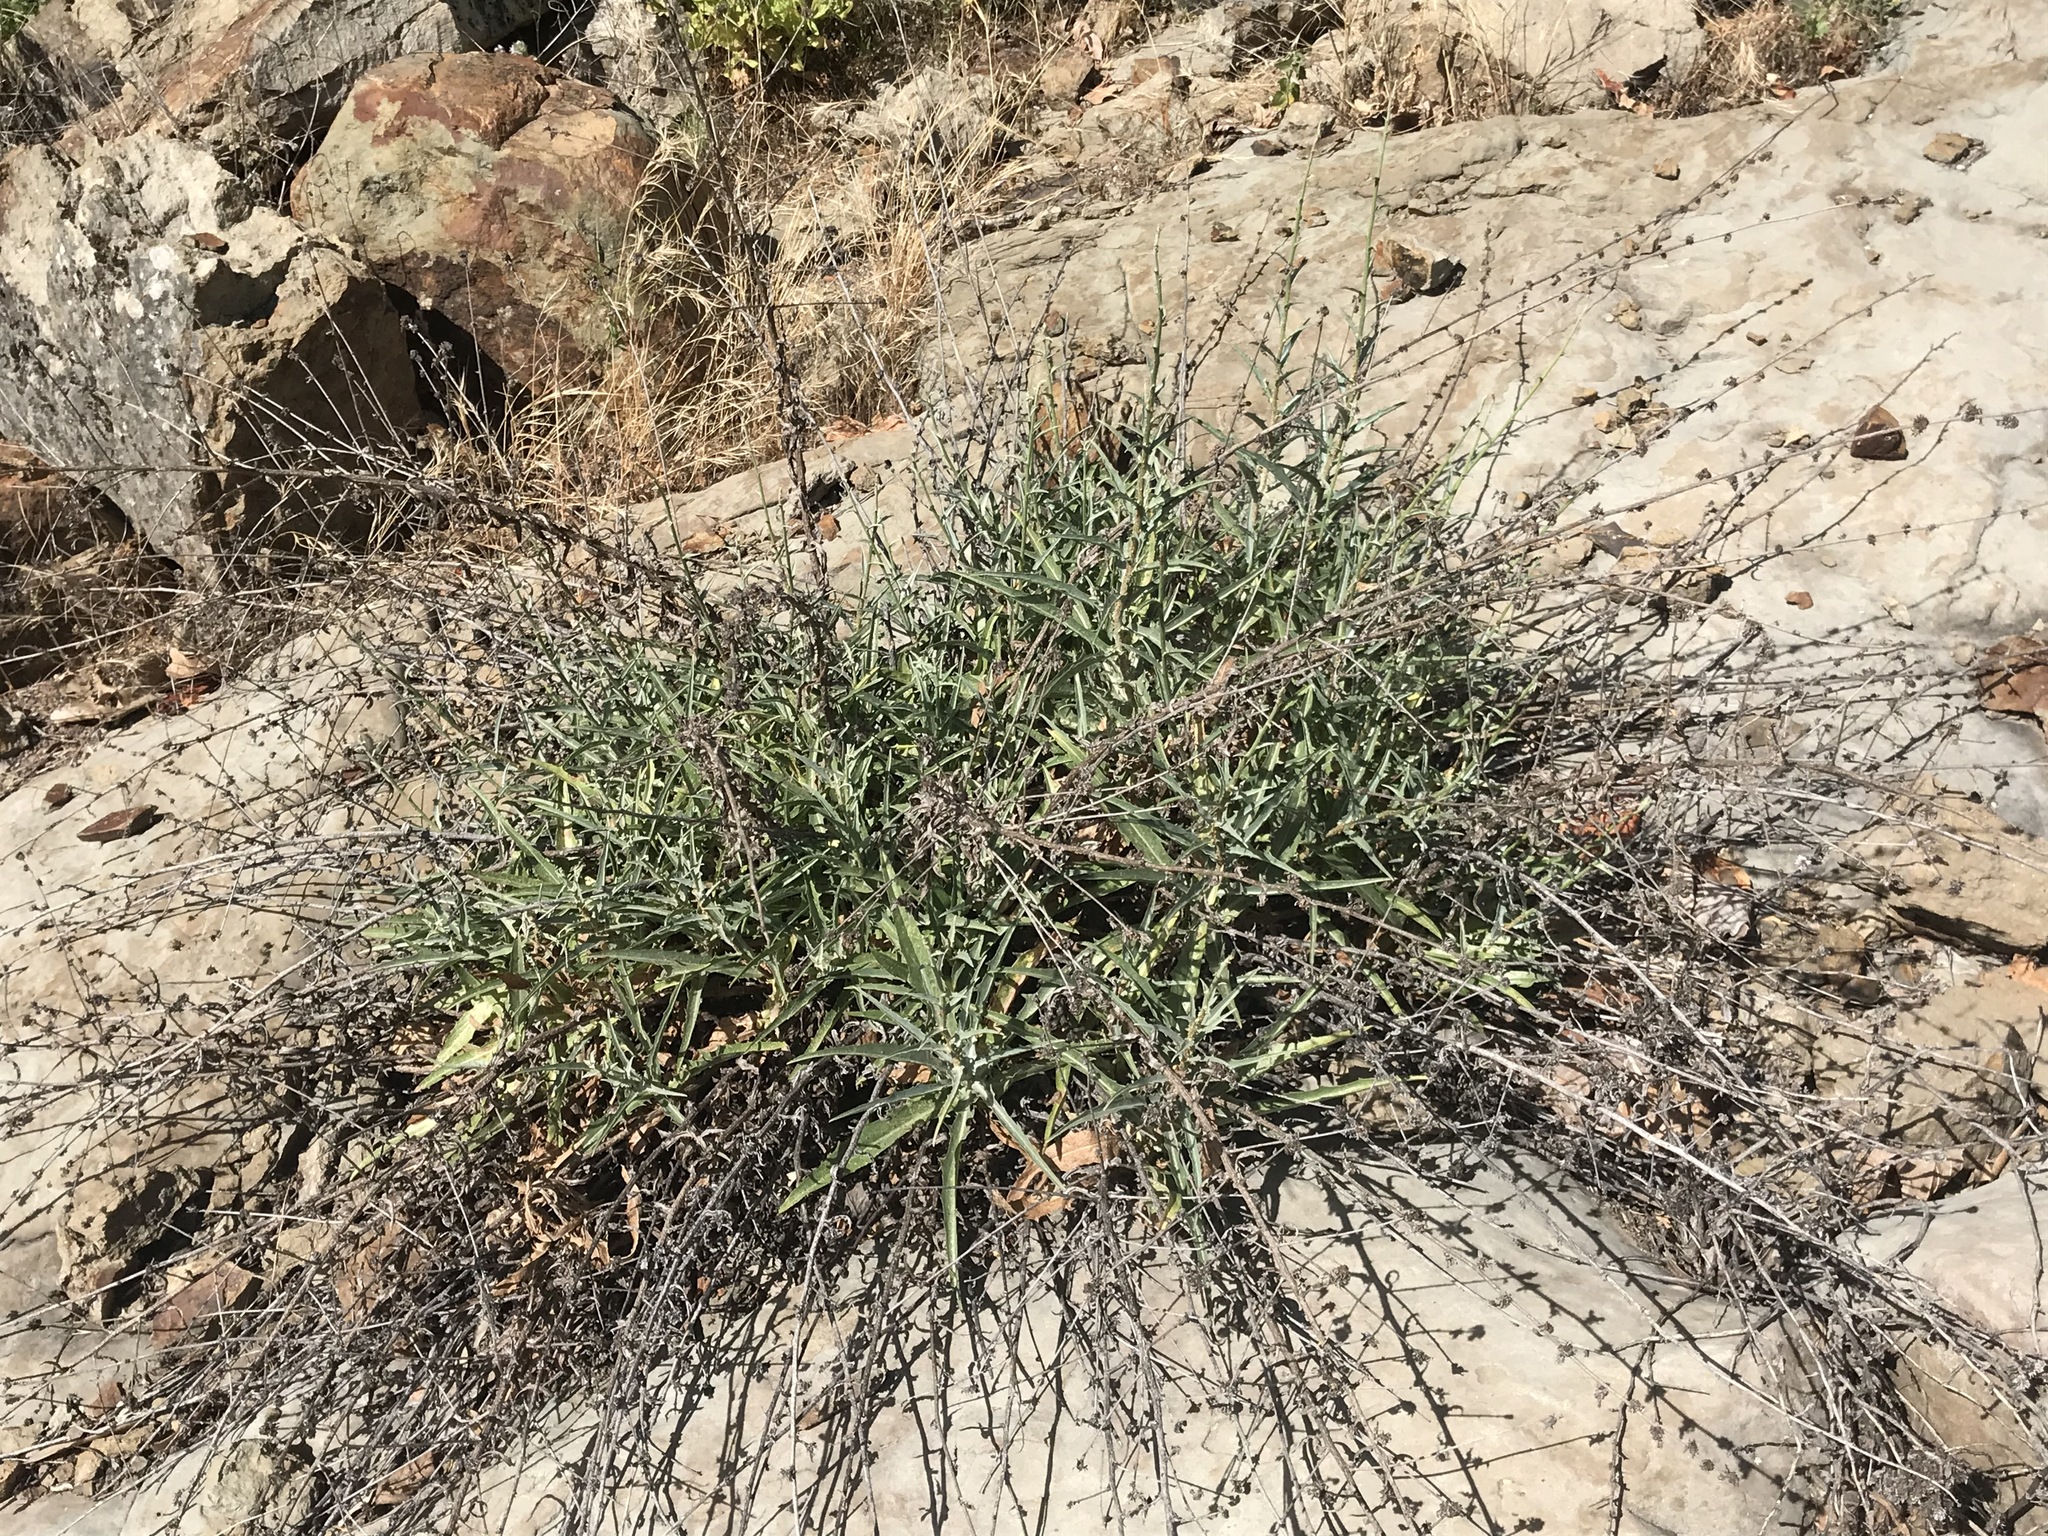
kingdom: Plantae
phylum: Tracheophyta
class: Magnoliopsida
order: Asterales
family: Asteraceae
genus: Stephanomeria
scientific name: Stephanomeria cichoriacea
